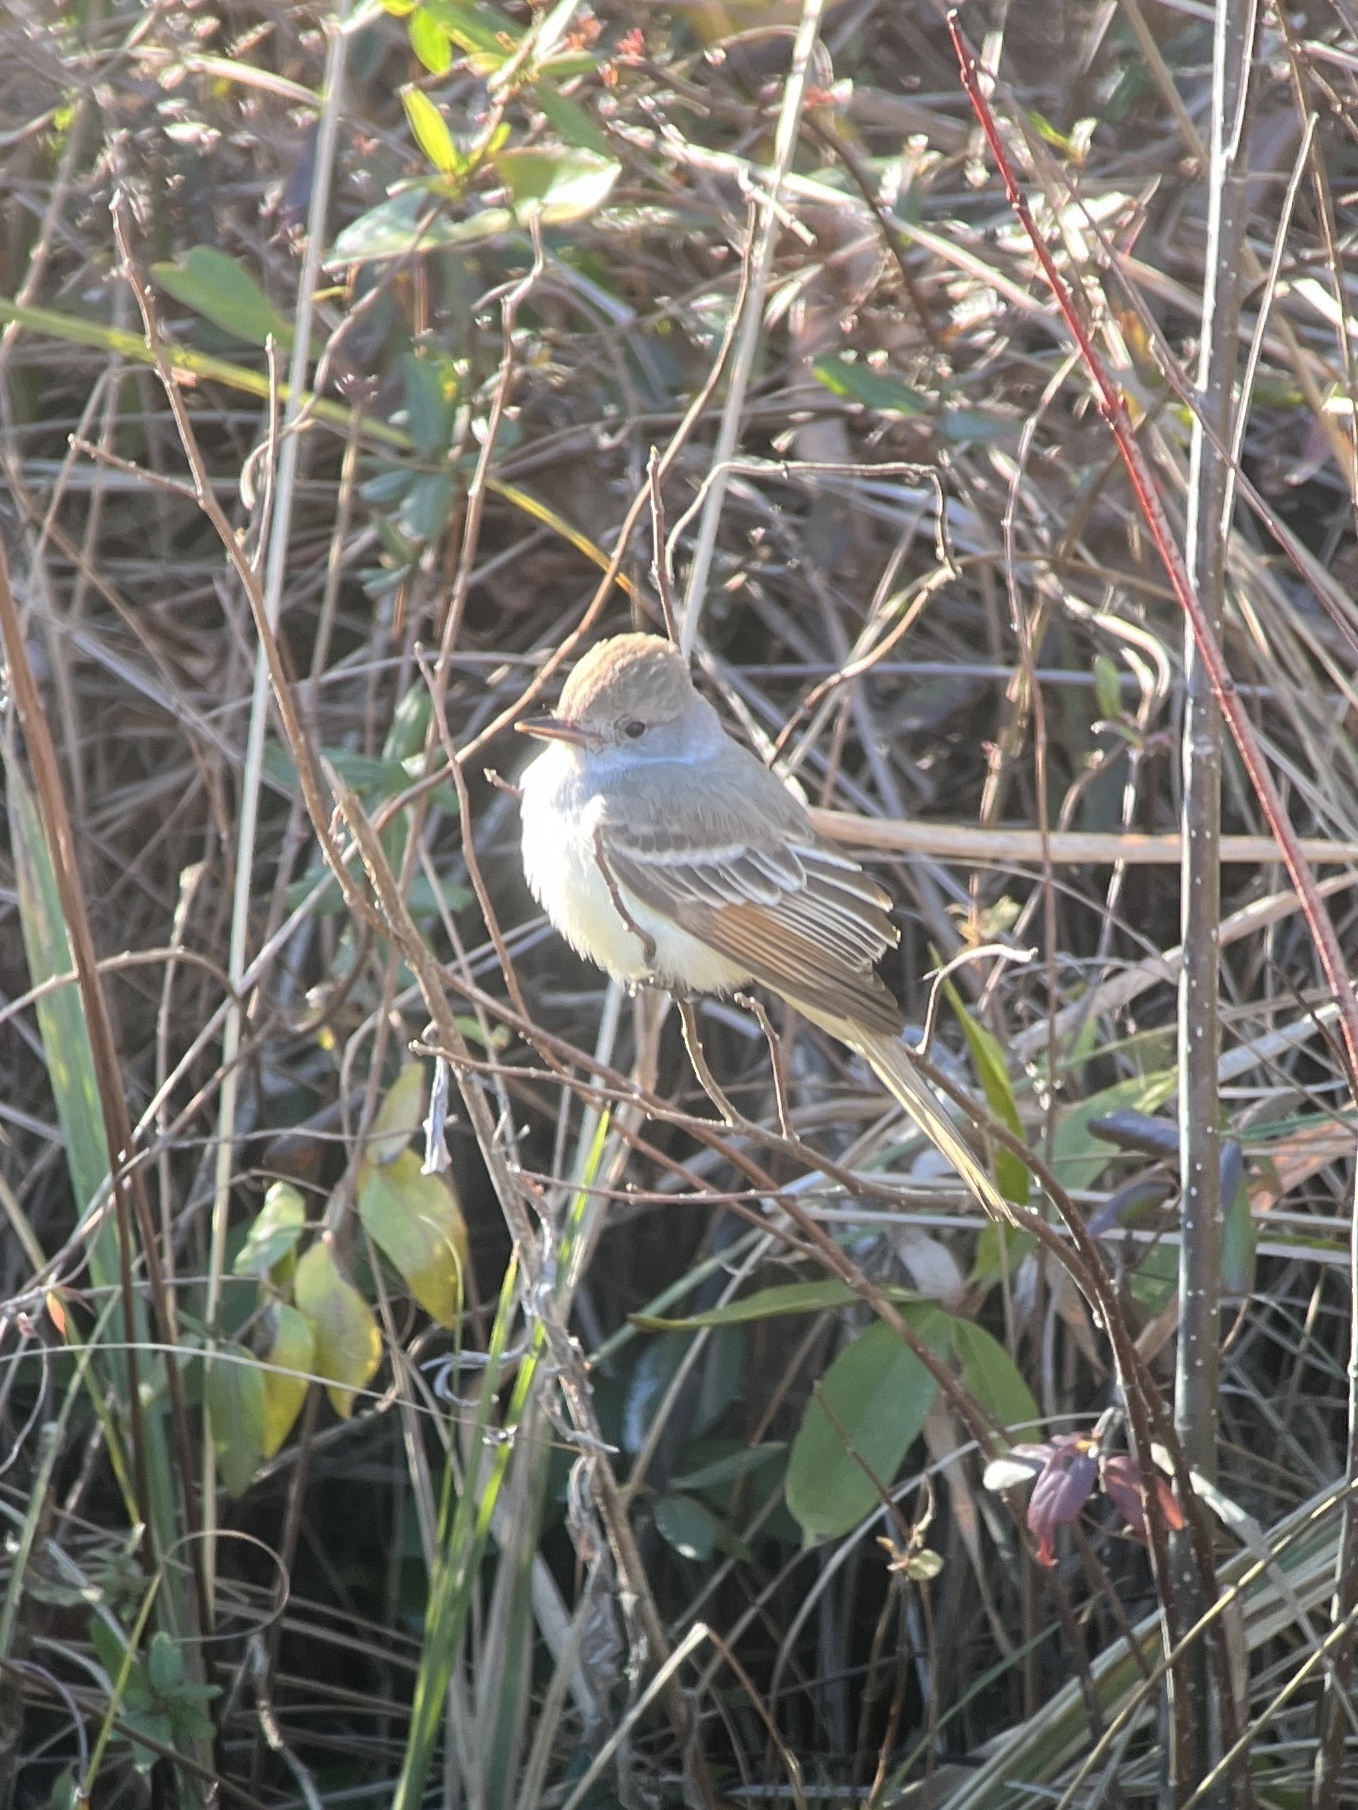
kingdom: Animalia
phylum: Chordata
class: Aves
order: Passeriformes
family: Tyrannidae
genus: Myiarchus
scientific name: Myiarchus cinerascens
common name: Ash-throated flycatcher
